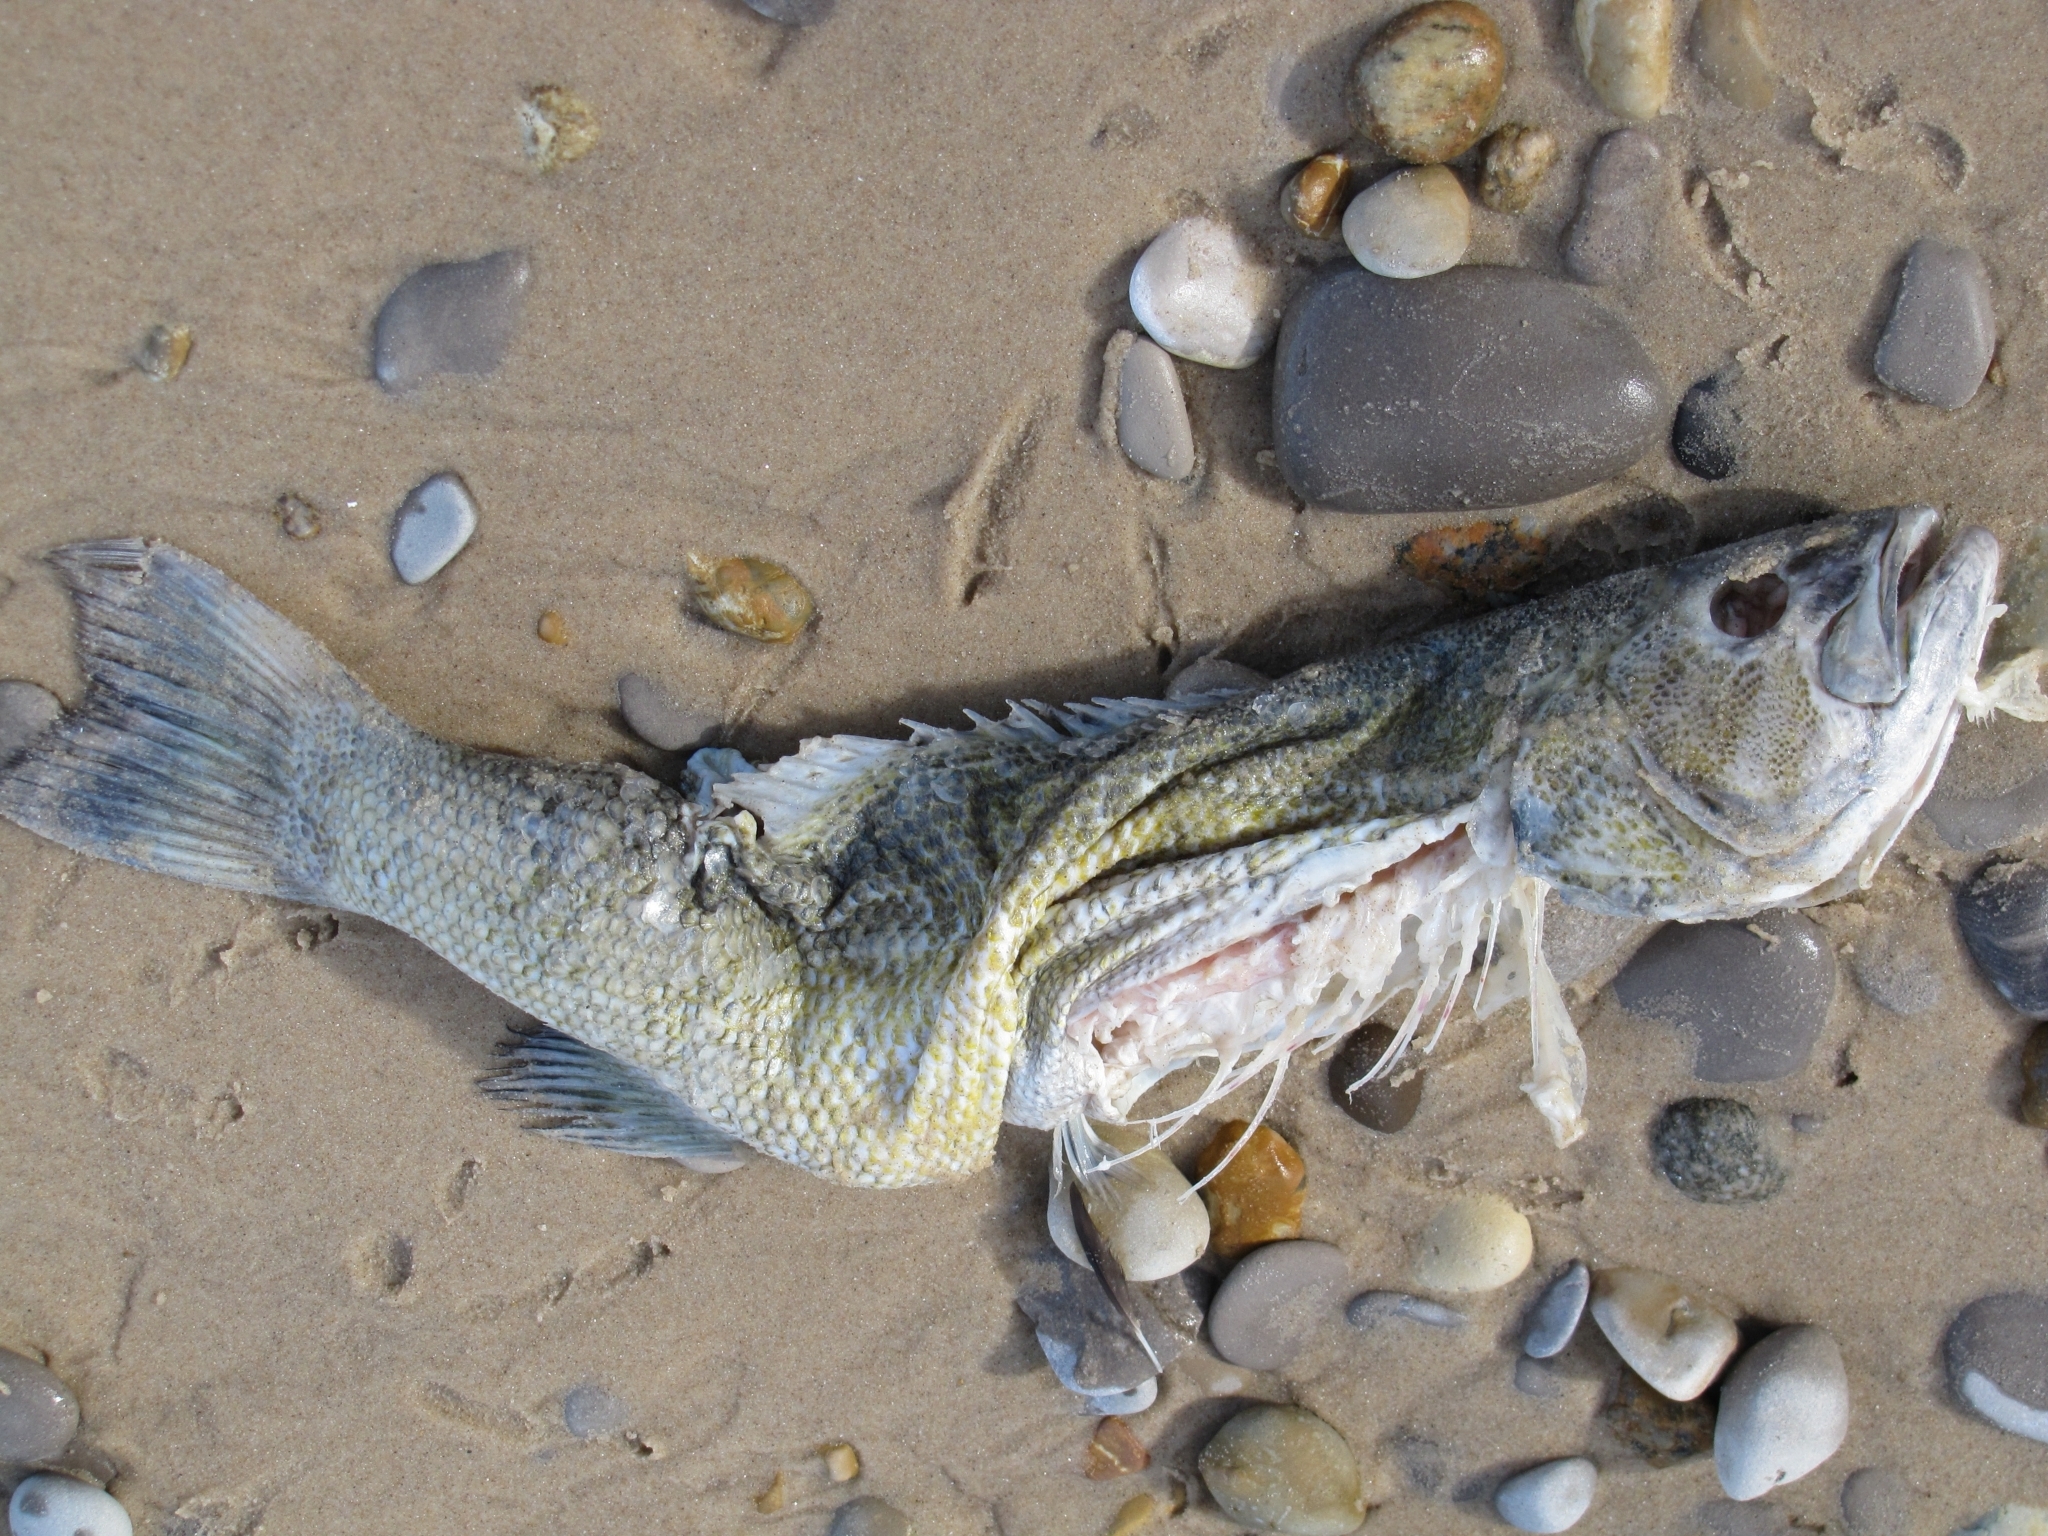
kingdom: Animalia
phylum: Chordata
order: Perciformes
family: Centrarchidae
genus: Micropterus
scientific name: Micropterus dolomieu
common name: Smallmouth bass
